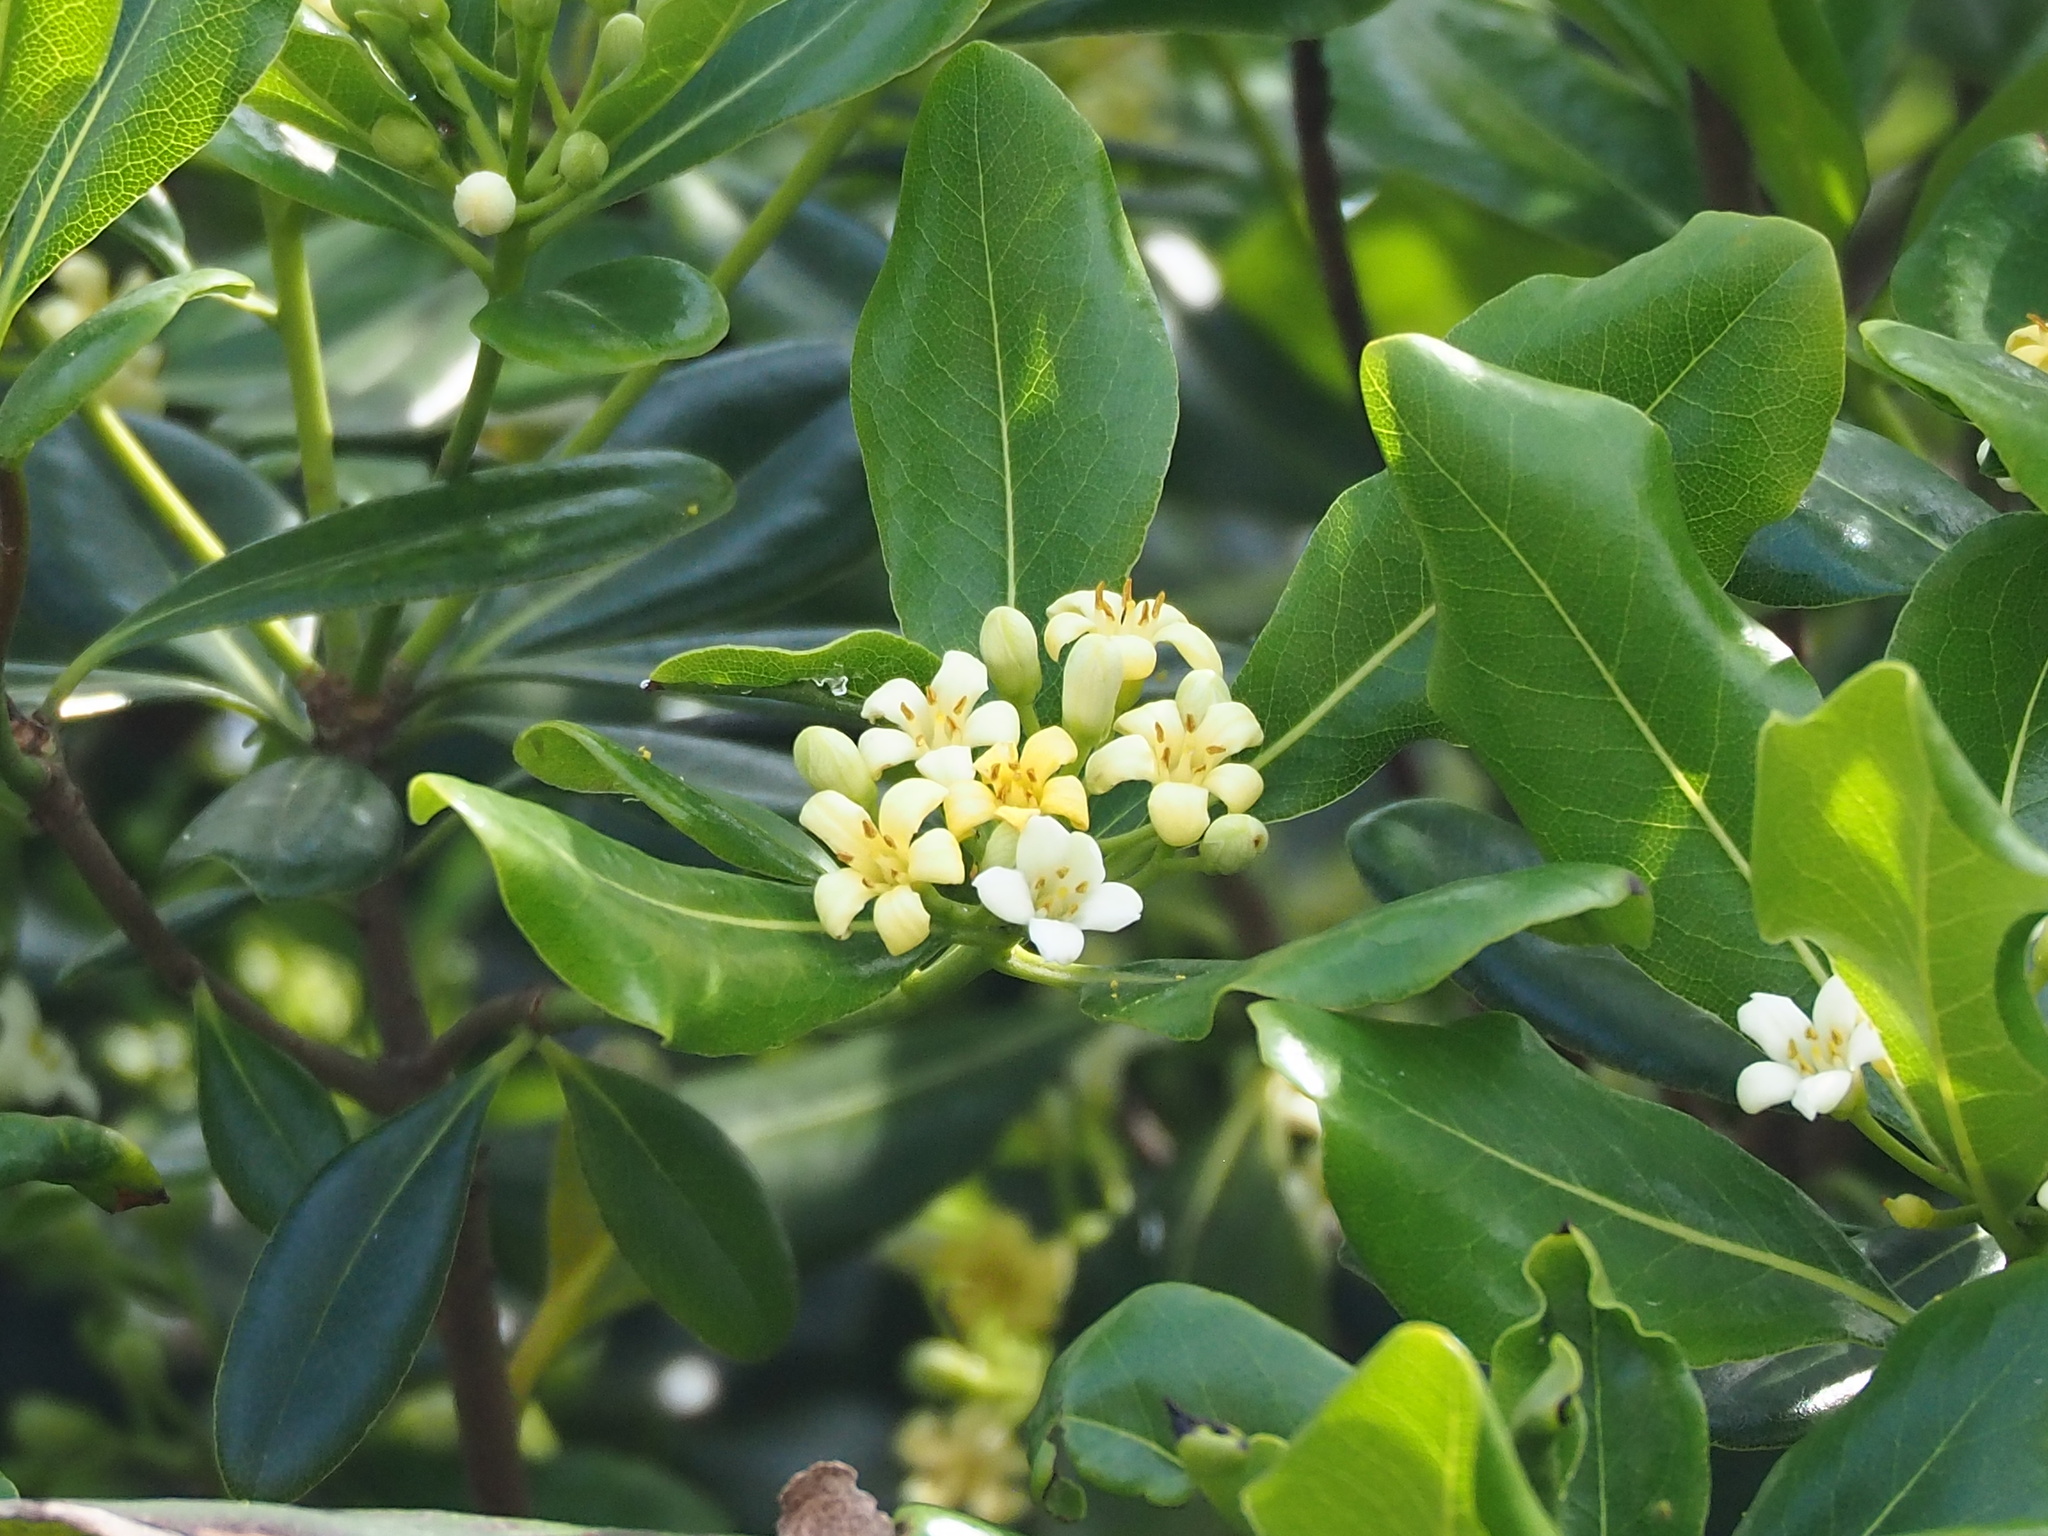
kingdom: Plantae
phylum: Tracheophyta
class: Magnoliopsida
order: Apiales
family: Pittosporaceae
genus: Pittosporum
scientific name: Pittosporum tobira
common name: Japanese cheesewood
